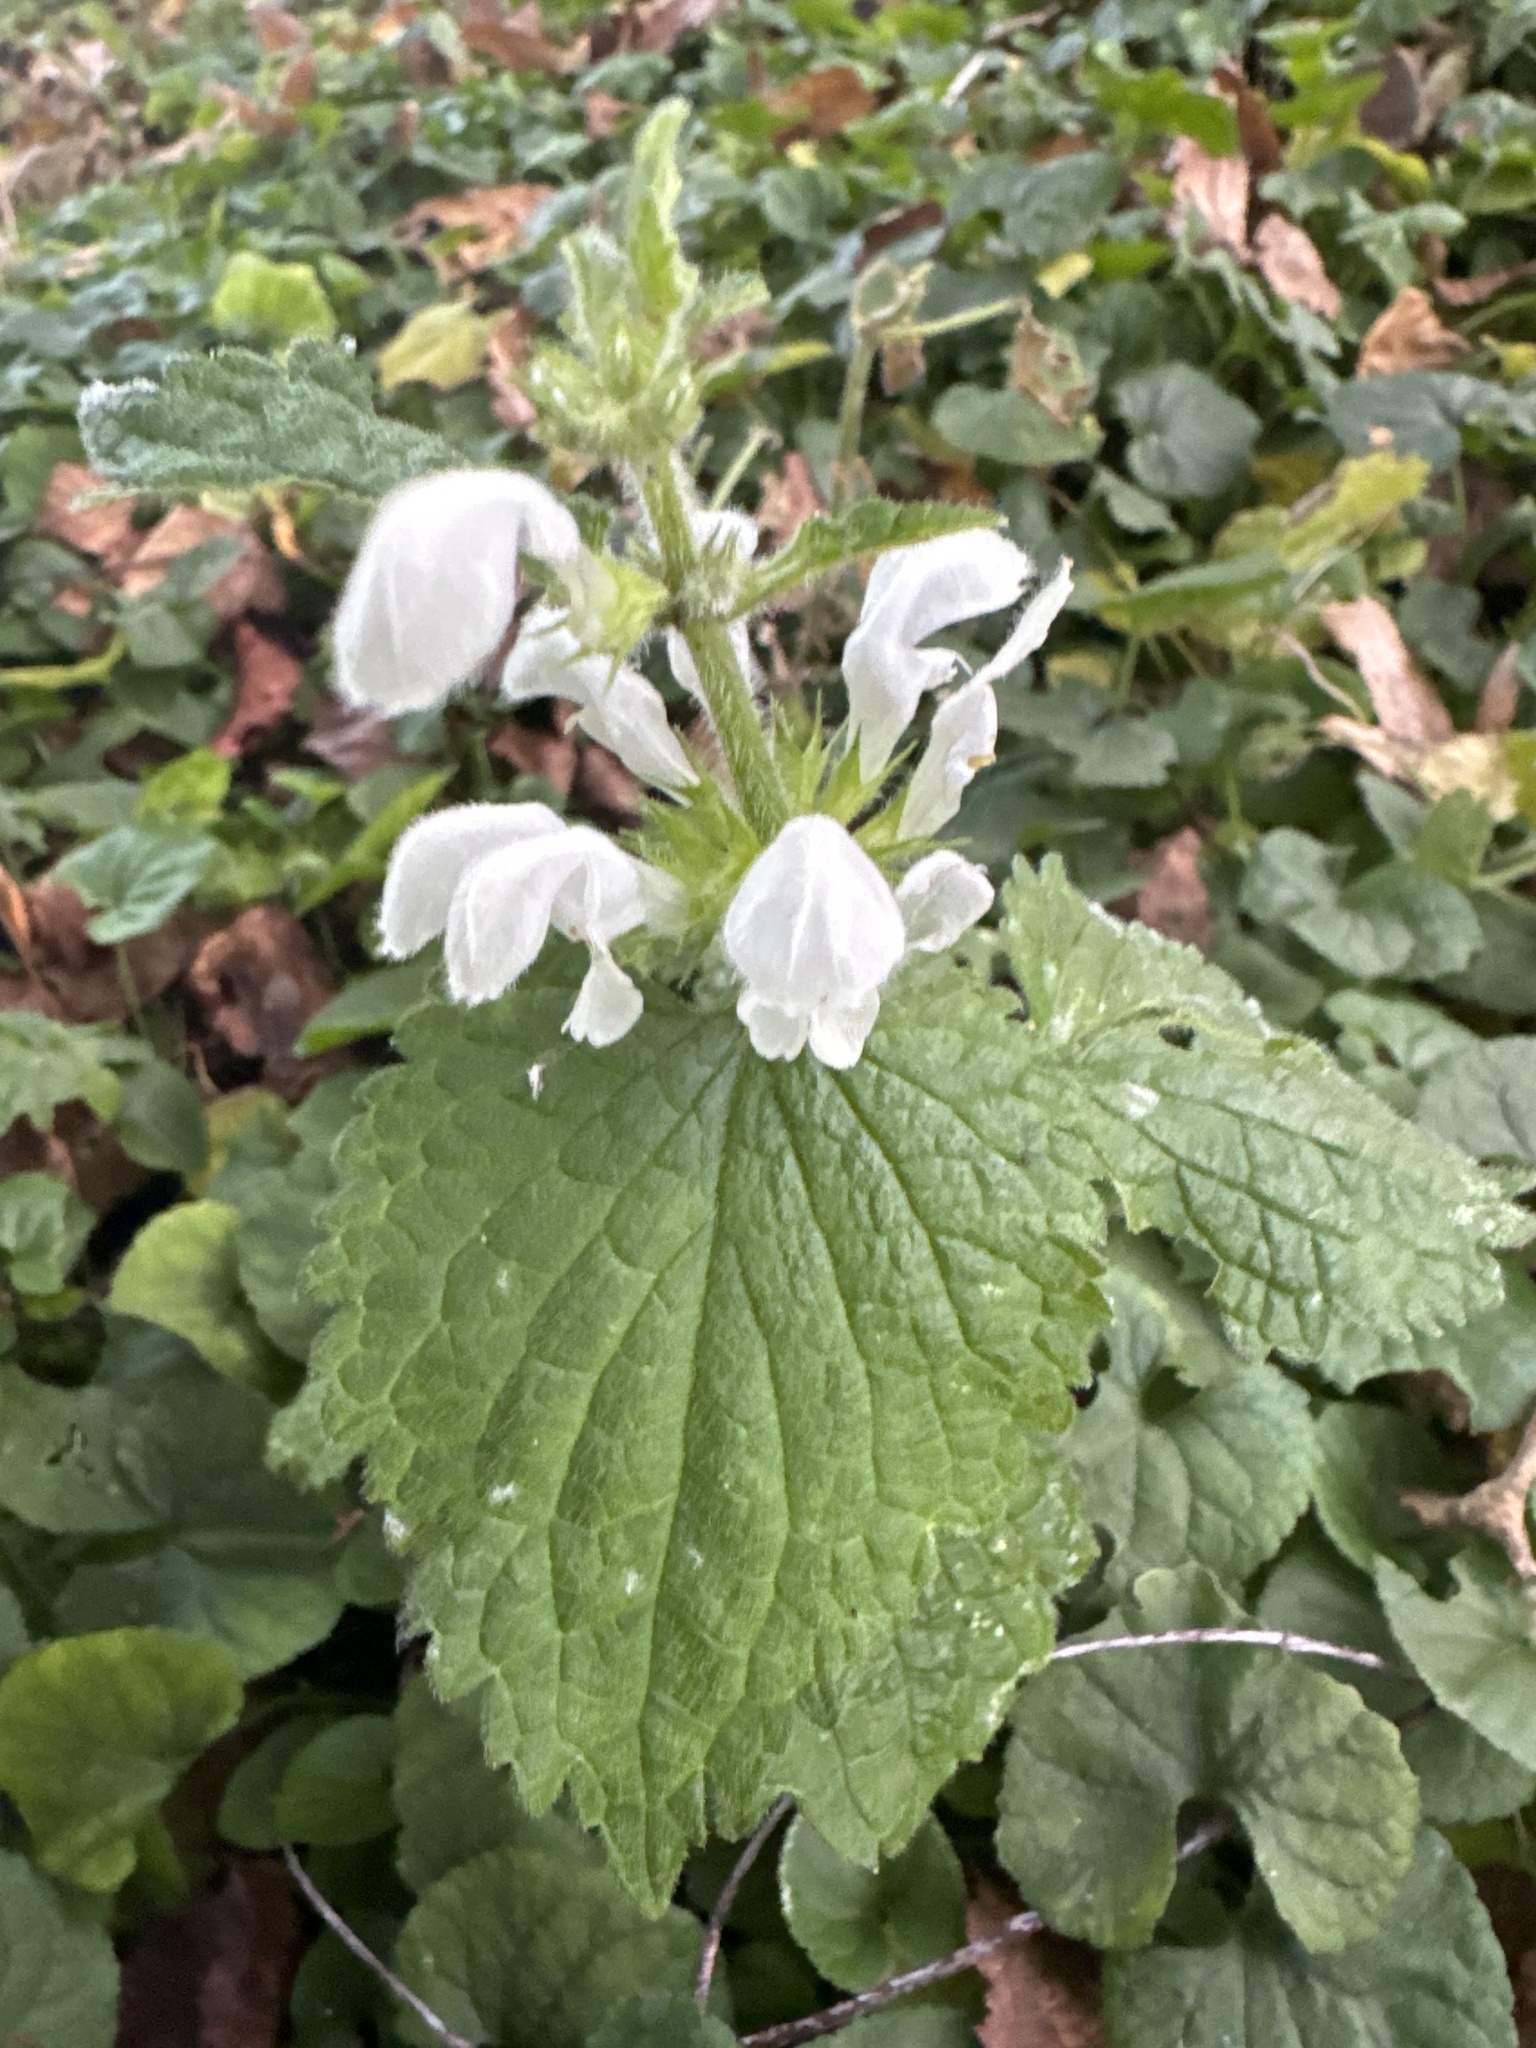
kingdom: Plantae
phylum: Tracheophyta
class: Magnoliopsida
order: Lamiales
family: Lamiaceae
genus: Lamium
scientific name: Lamium album
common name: White dead-nettle
